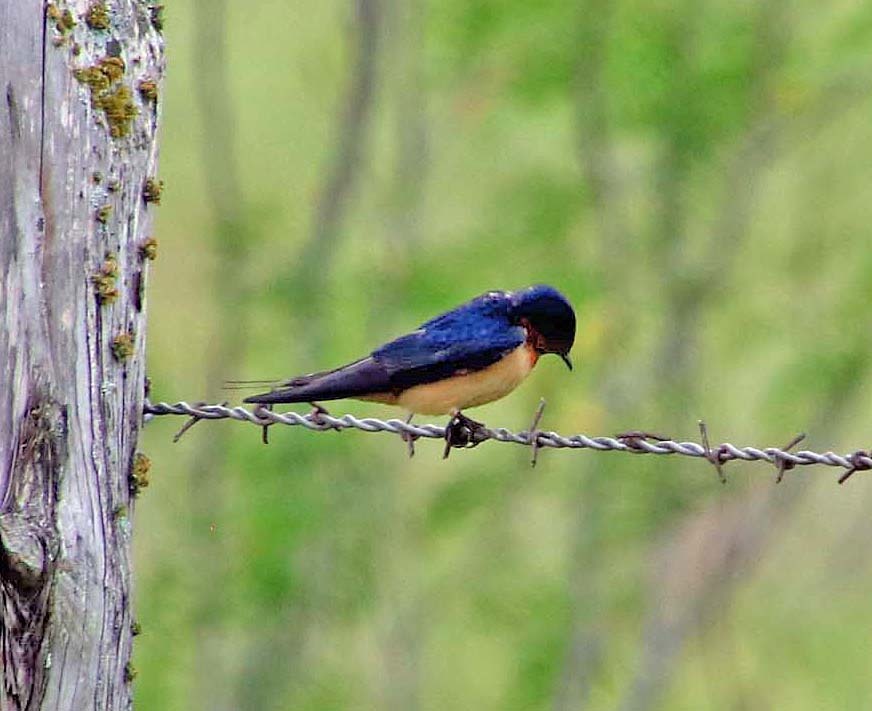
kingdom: Animalia
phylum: Chordata
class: Aves
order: Passeriformes
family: Hirundinidae
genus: Hirundo
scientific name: Hirundo rustica
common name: Barn swallow
